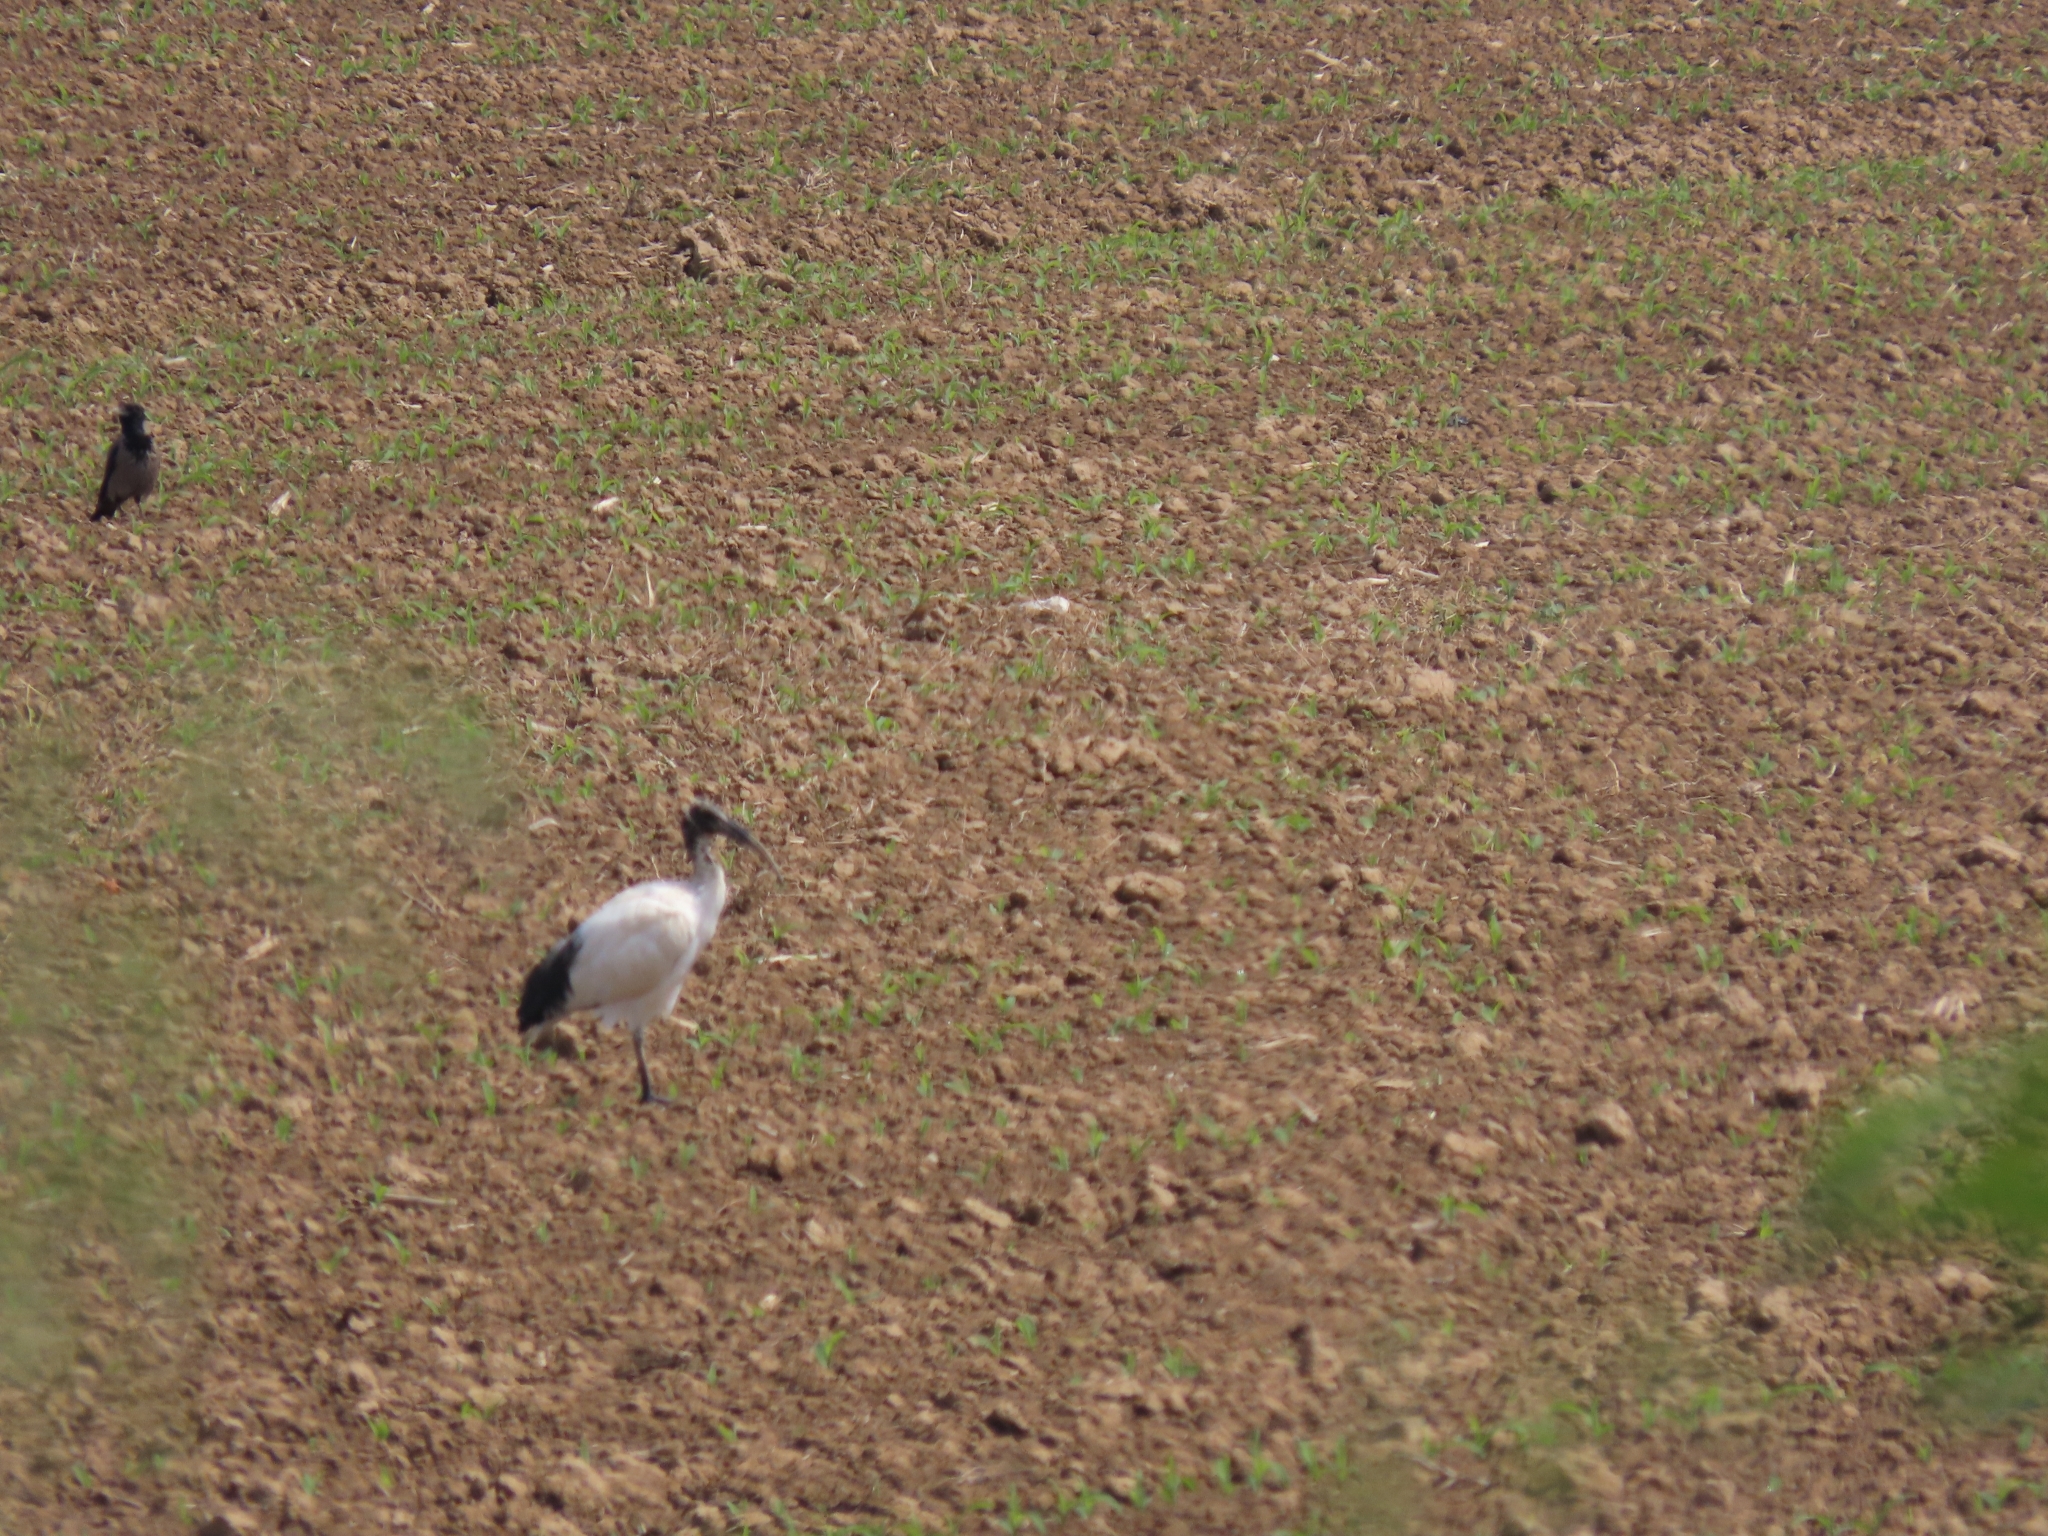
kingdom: Animalia
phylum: Chordata
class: Aves
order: Pelecaniformes
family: Threskiornithidae
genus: Threskiornis
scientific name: Threskiornis aethiopicus
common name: Sacred ibis
